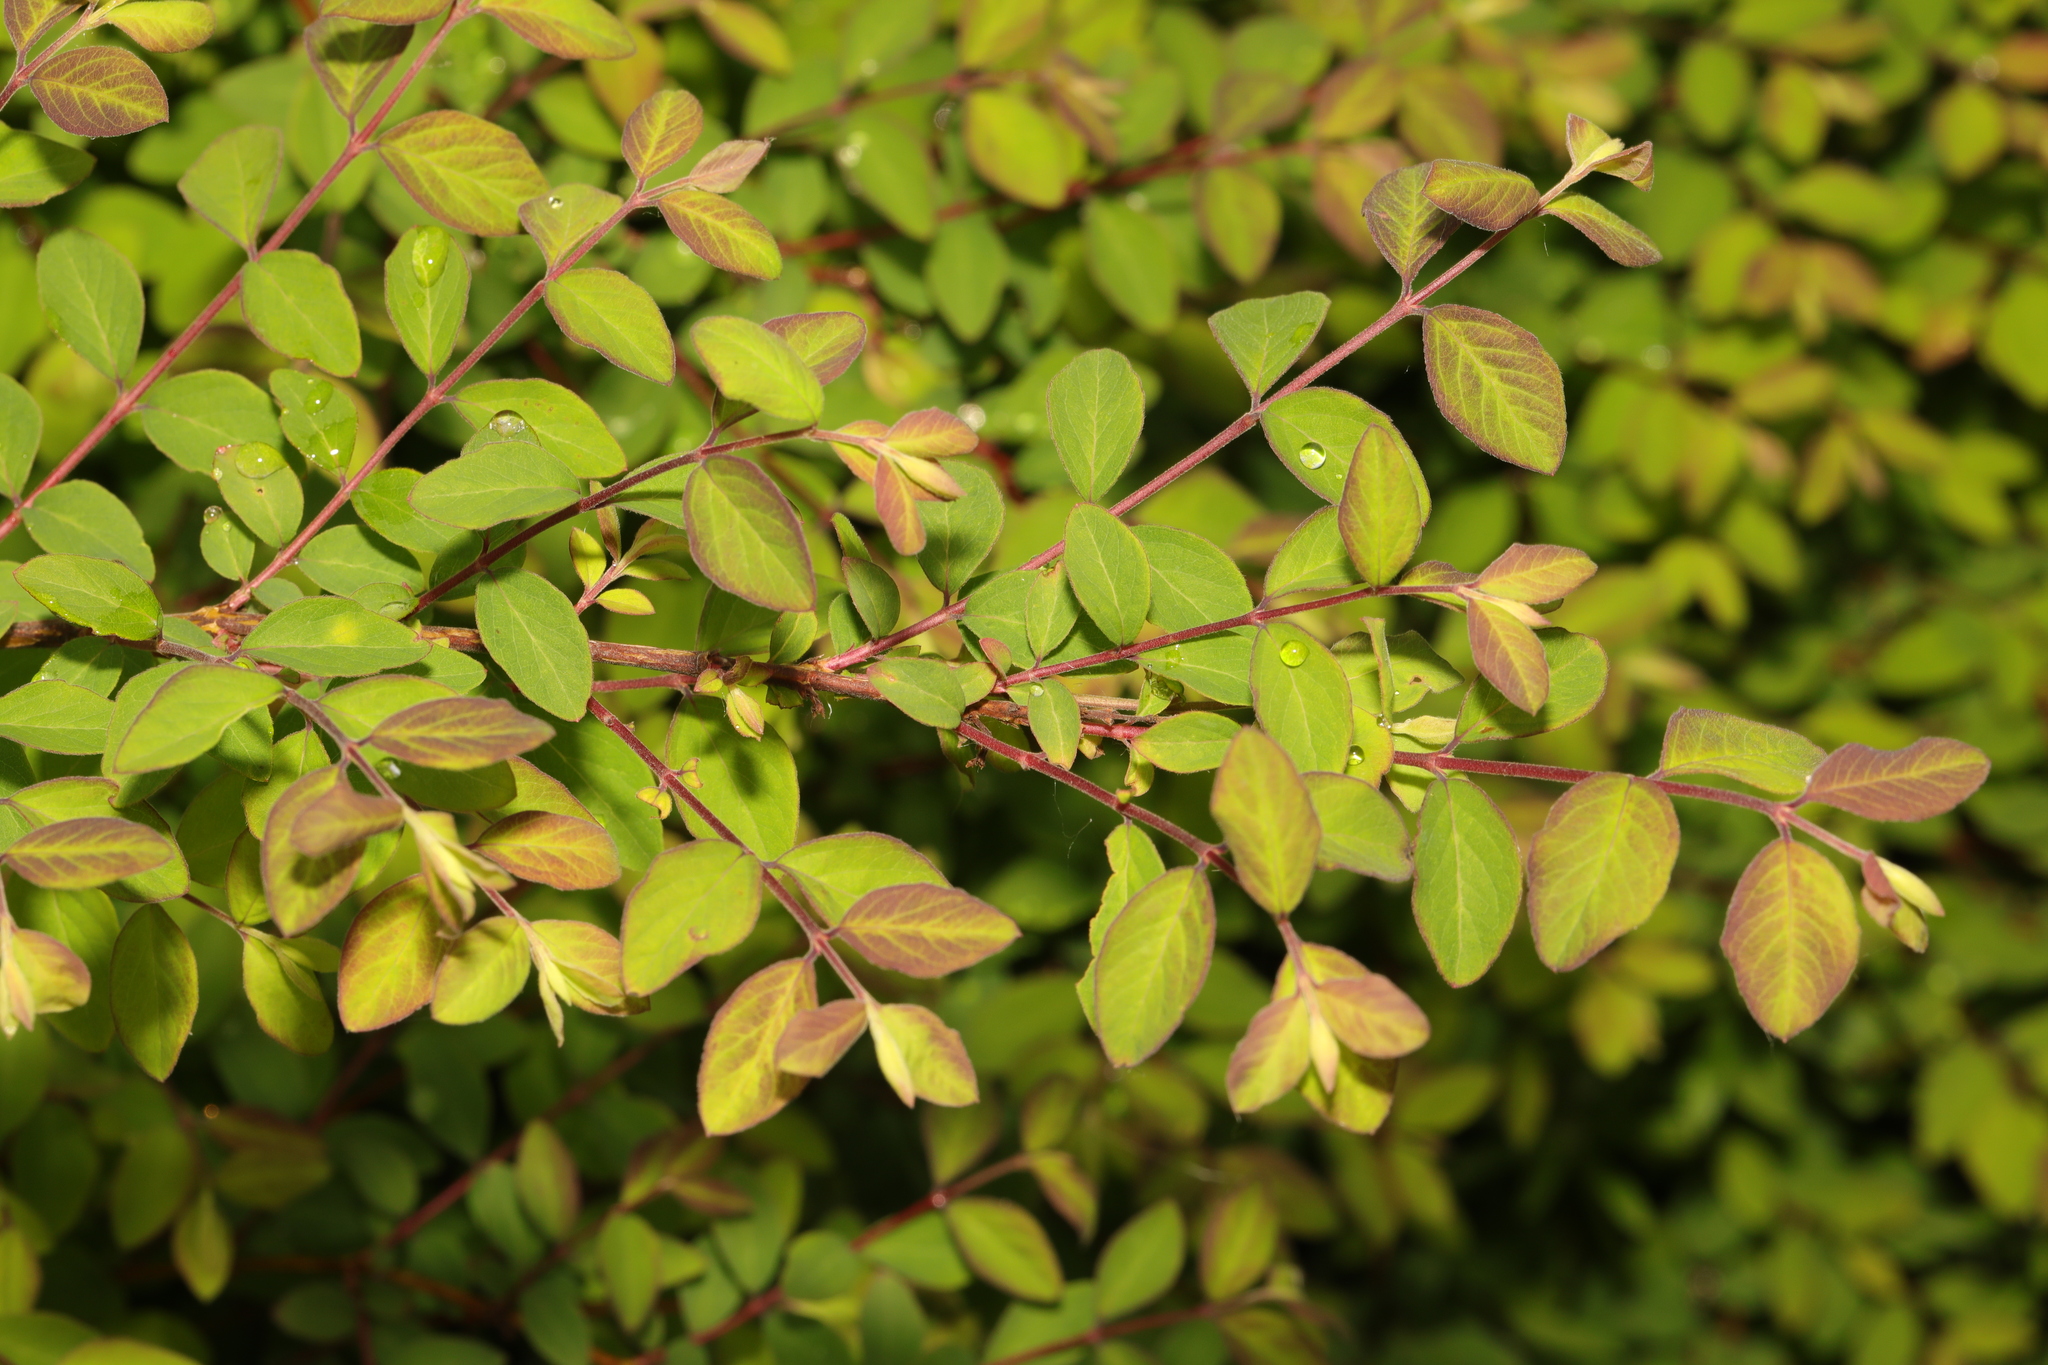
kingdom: Plantae
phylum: Tracheophyta
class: Magnoliopsida
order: Dipsacales
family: Caprifoliaceae
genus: Symphoricarpos
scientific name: Symphoricarpos albus
